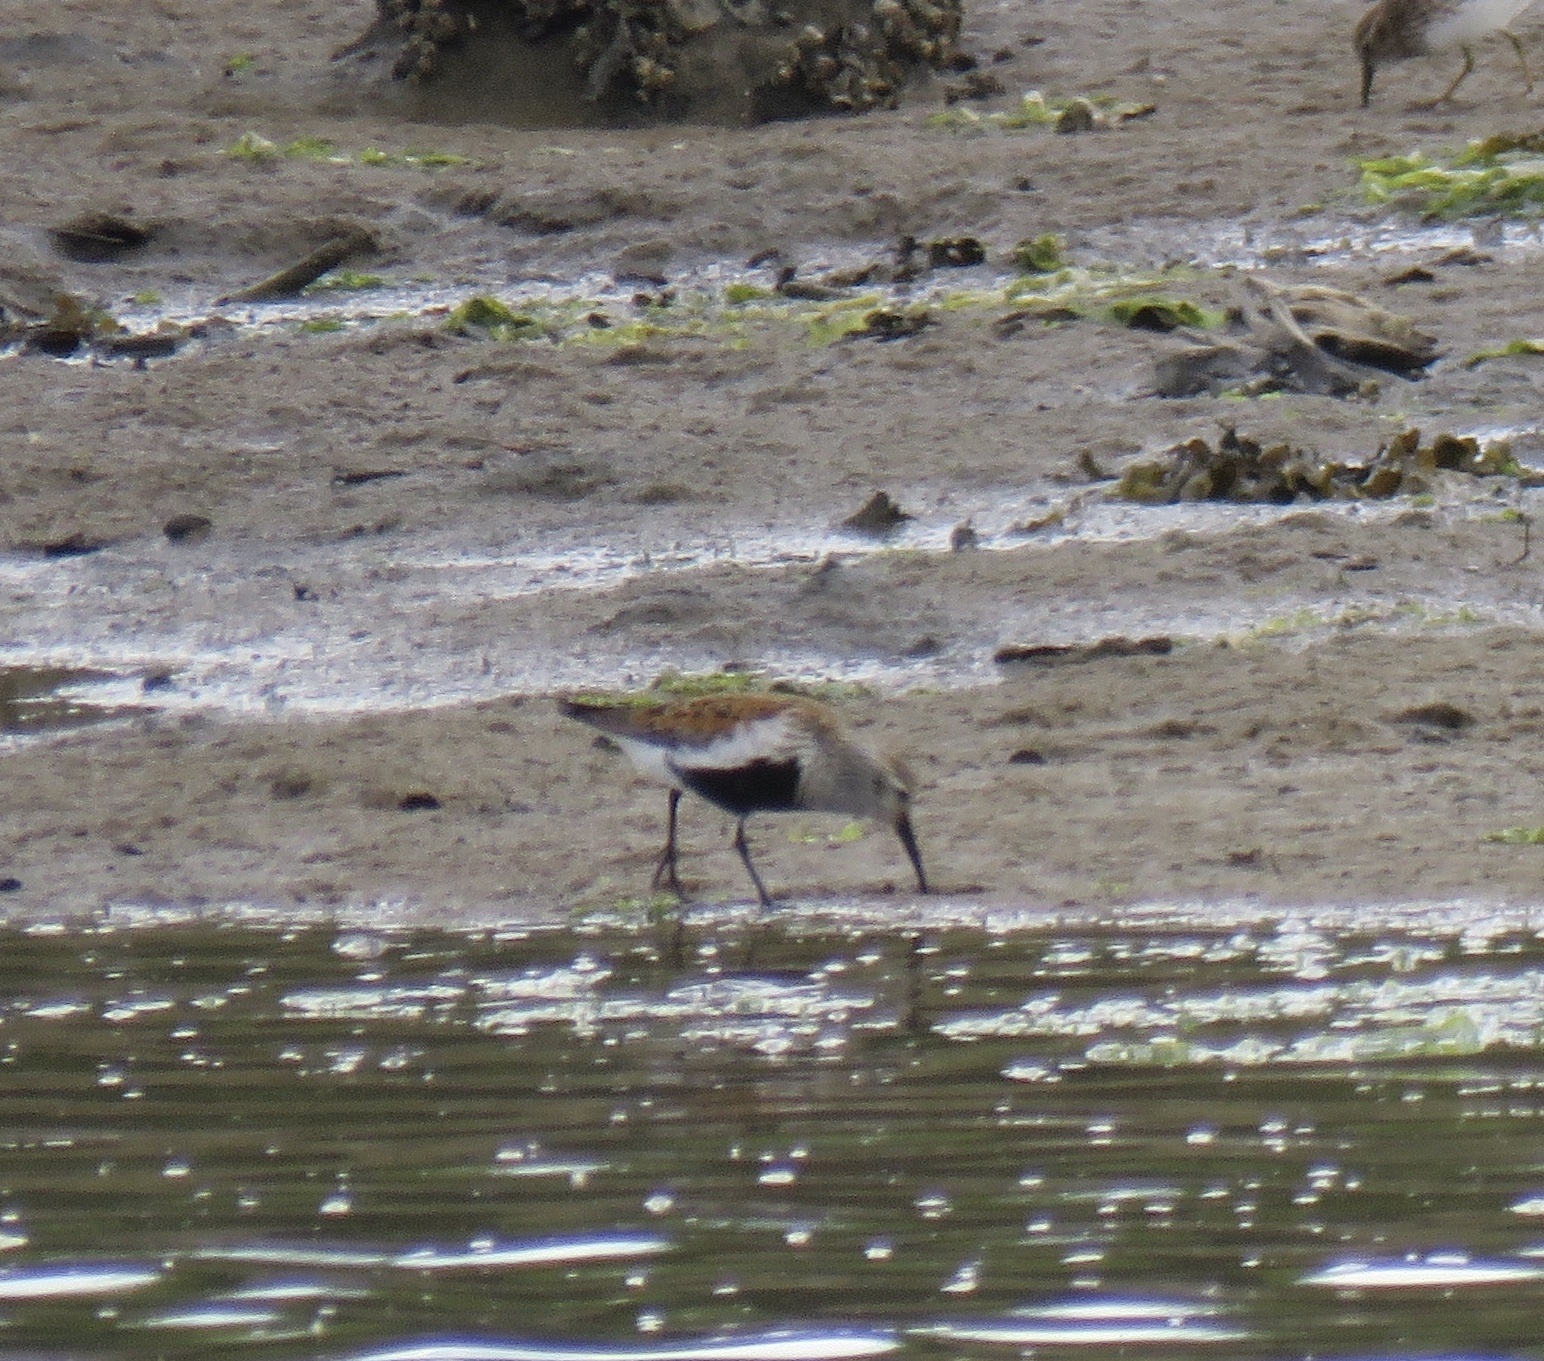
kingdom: Animalia
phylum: Chordata
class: Aves
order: Charadriiformes
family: Scolopacidae
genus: Calidris
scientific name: Calidris alpina
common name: Dunlin
